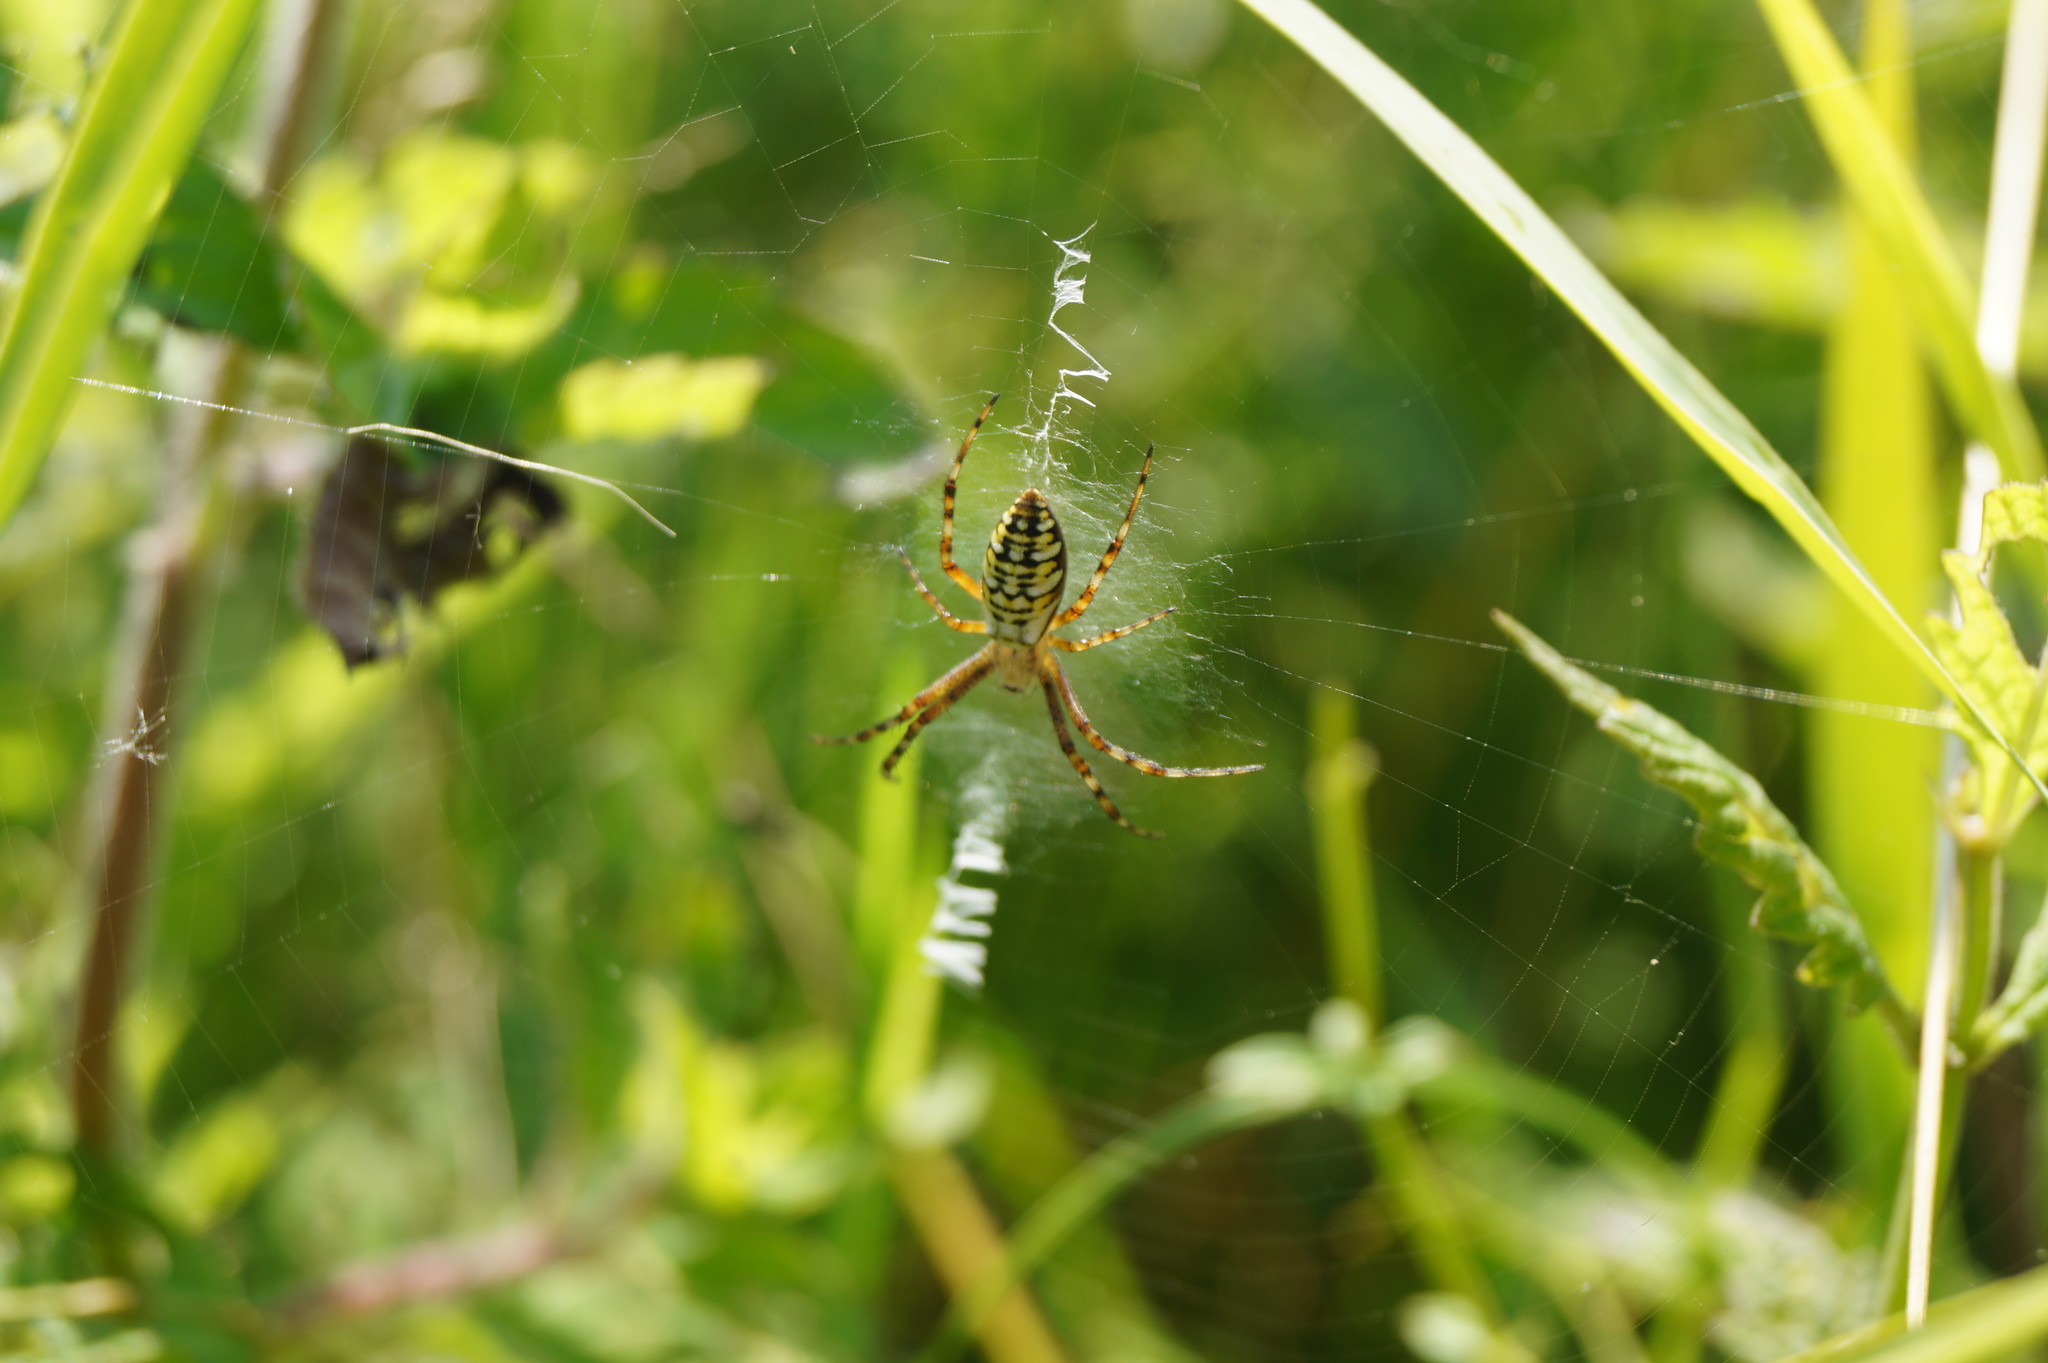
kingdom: Animalia
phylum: Arthropoda
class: Arachnida
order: Araneae
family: Araneidae
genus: Argiope
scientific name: Argiope bruennichi
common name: Wasp spider
